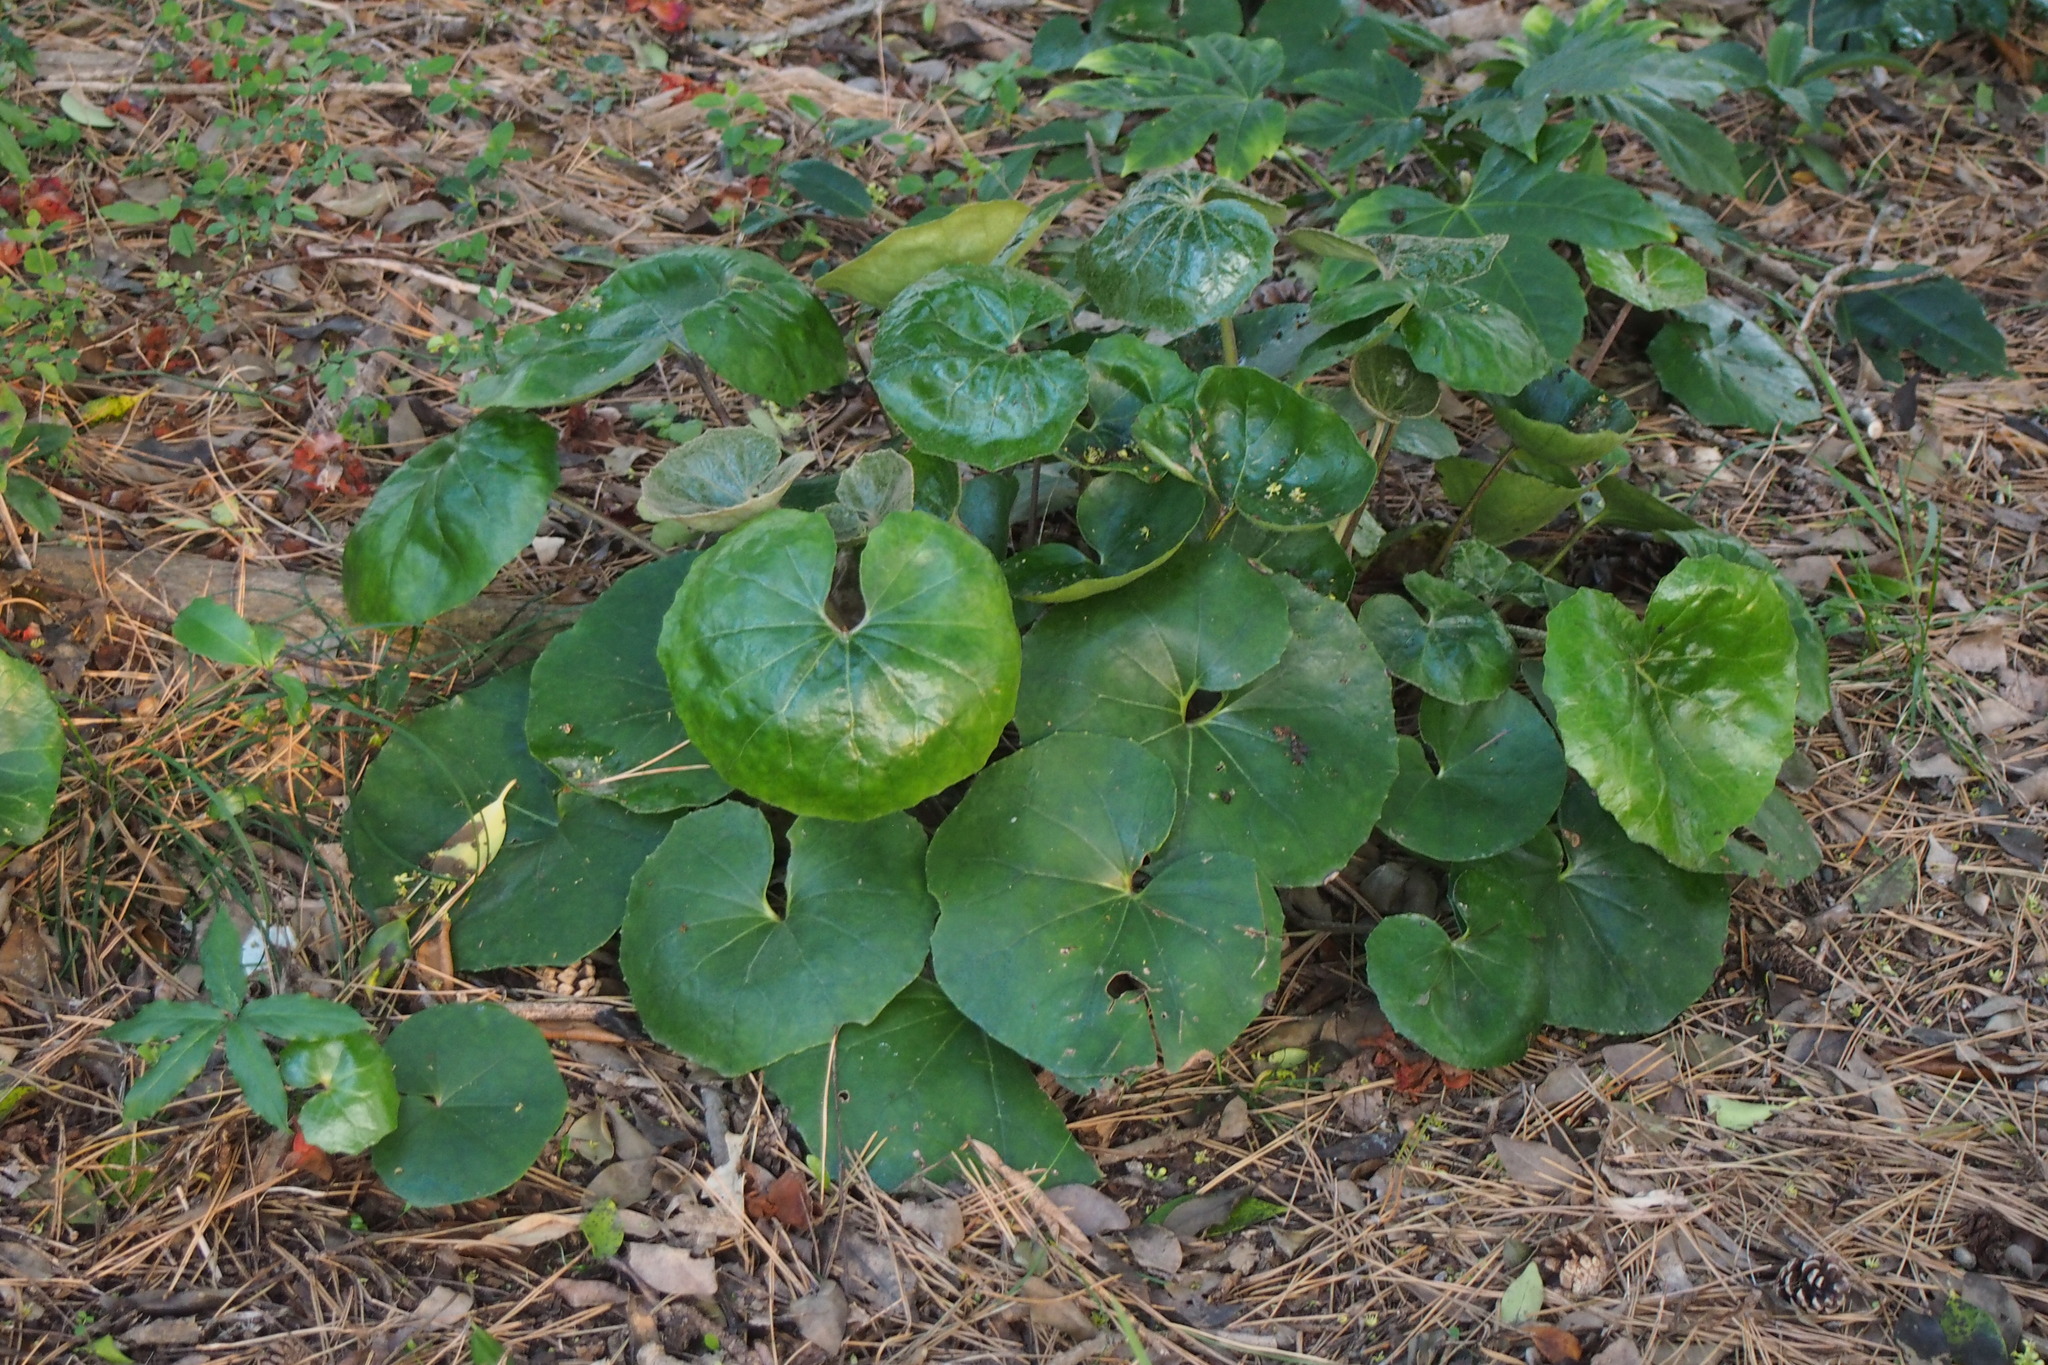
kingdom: Plantae
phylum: Tracheophyta
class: Magnoliopsida
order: Asterales
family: Asteraceae
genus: Farfugium
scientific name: Farfugium japonicum
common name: Leopardplant
